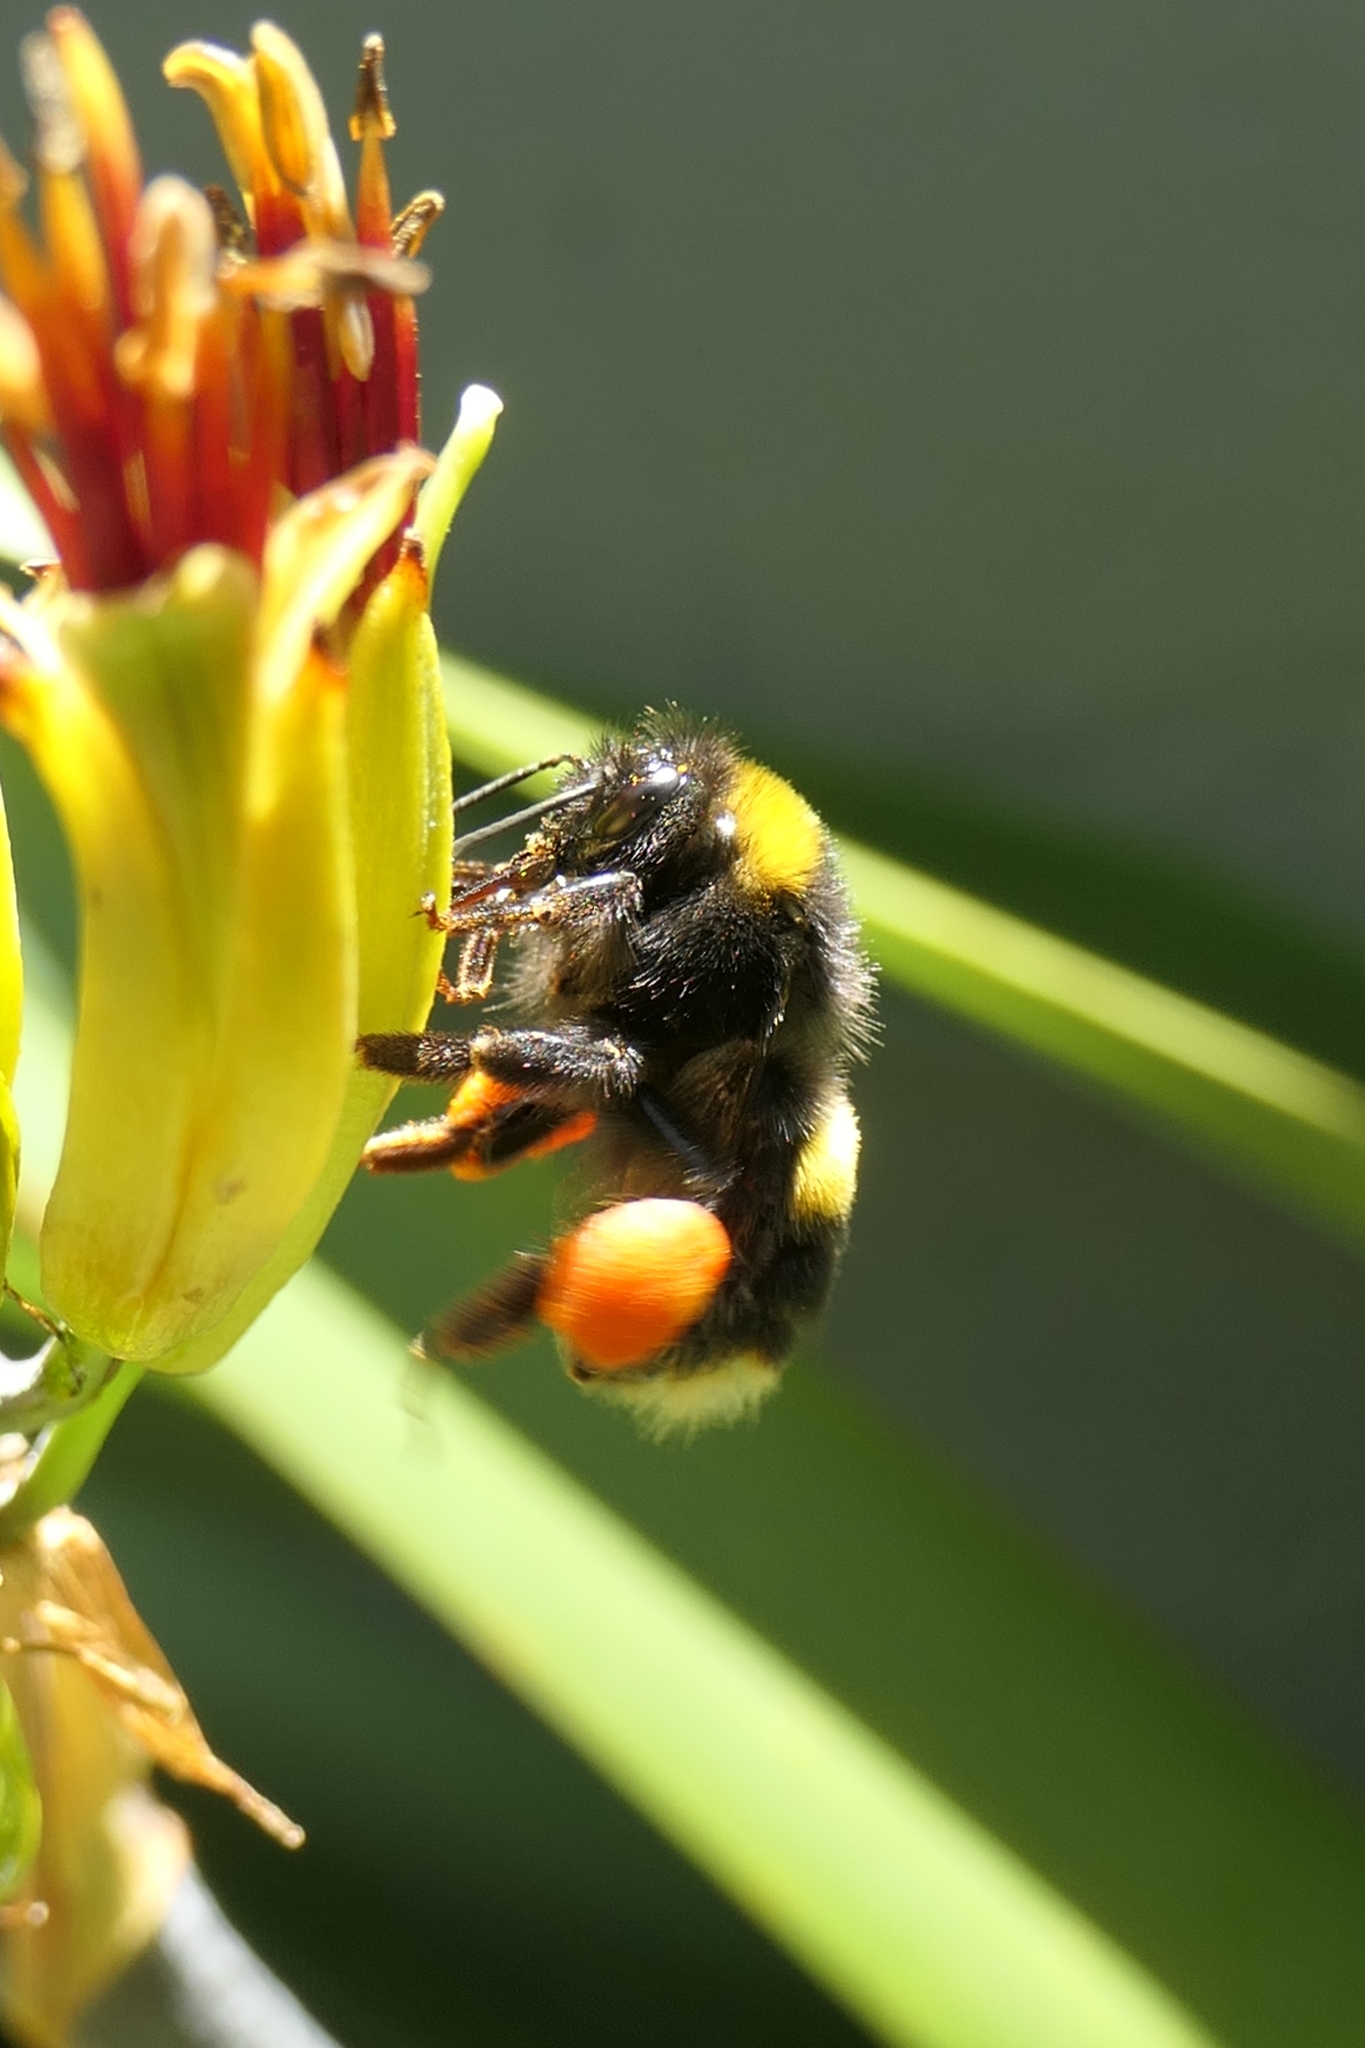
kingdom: Animalia
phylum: Arthropoda
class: Insecta
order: Hymenoptera
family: Apidae
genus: Bombus
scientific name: Bombus terrestris
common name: Buff-tailed bumblebee
